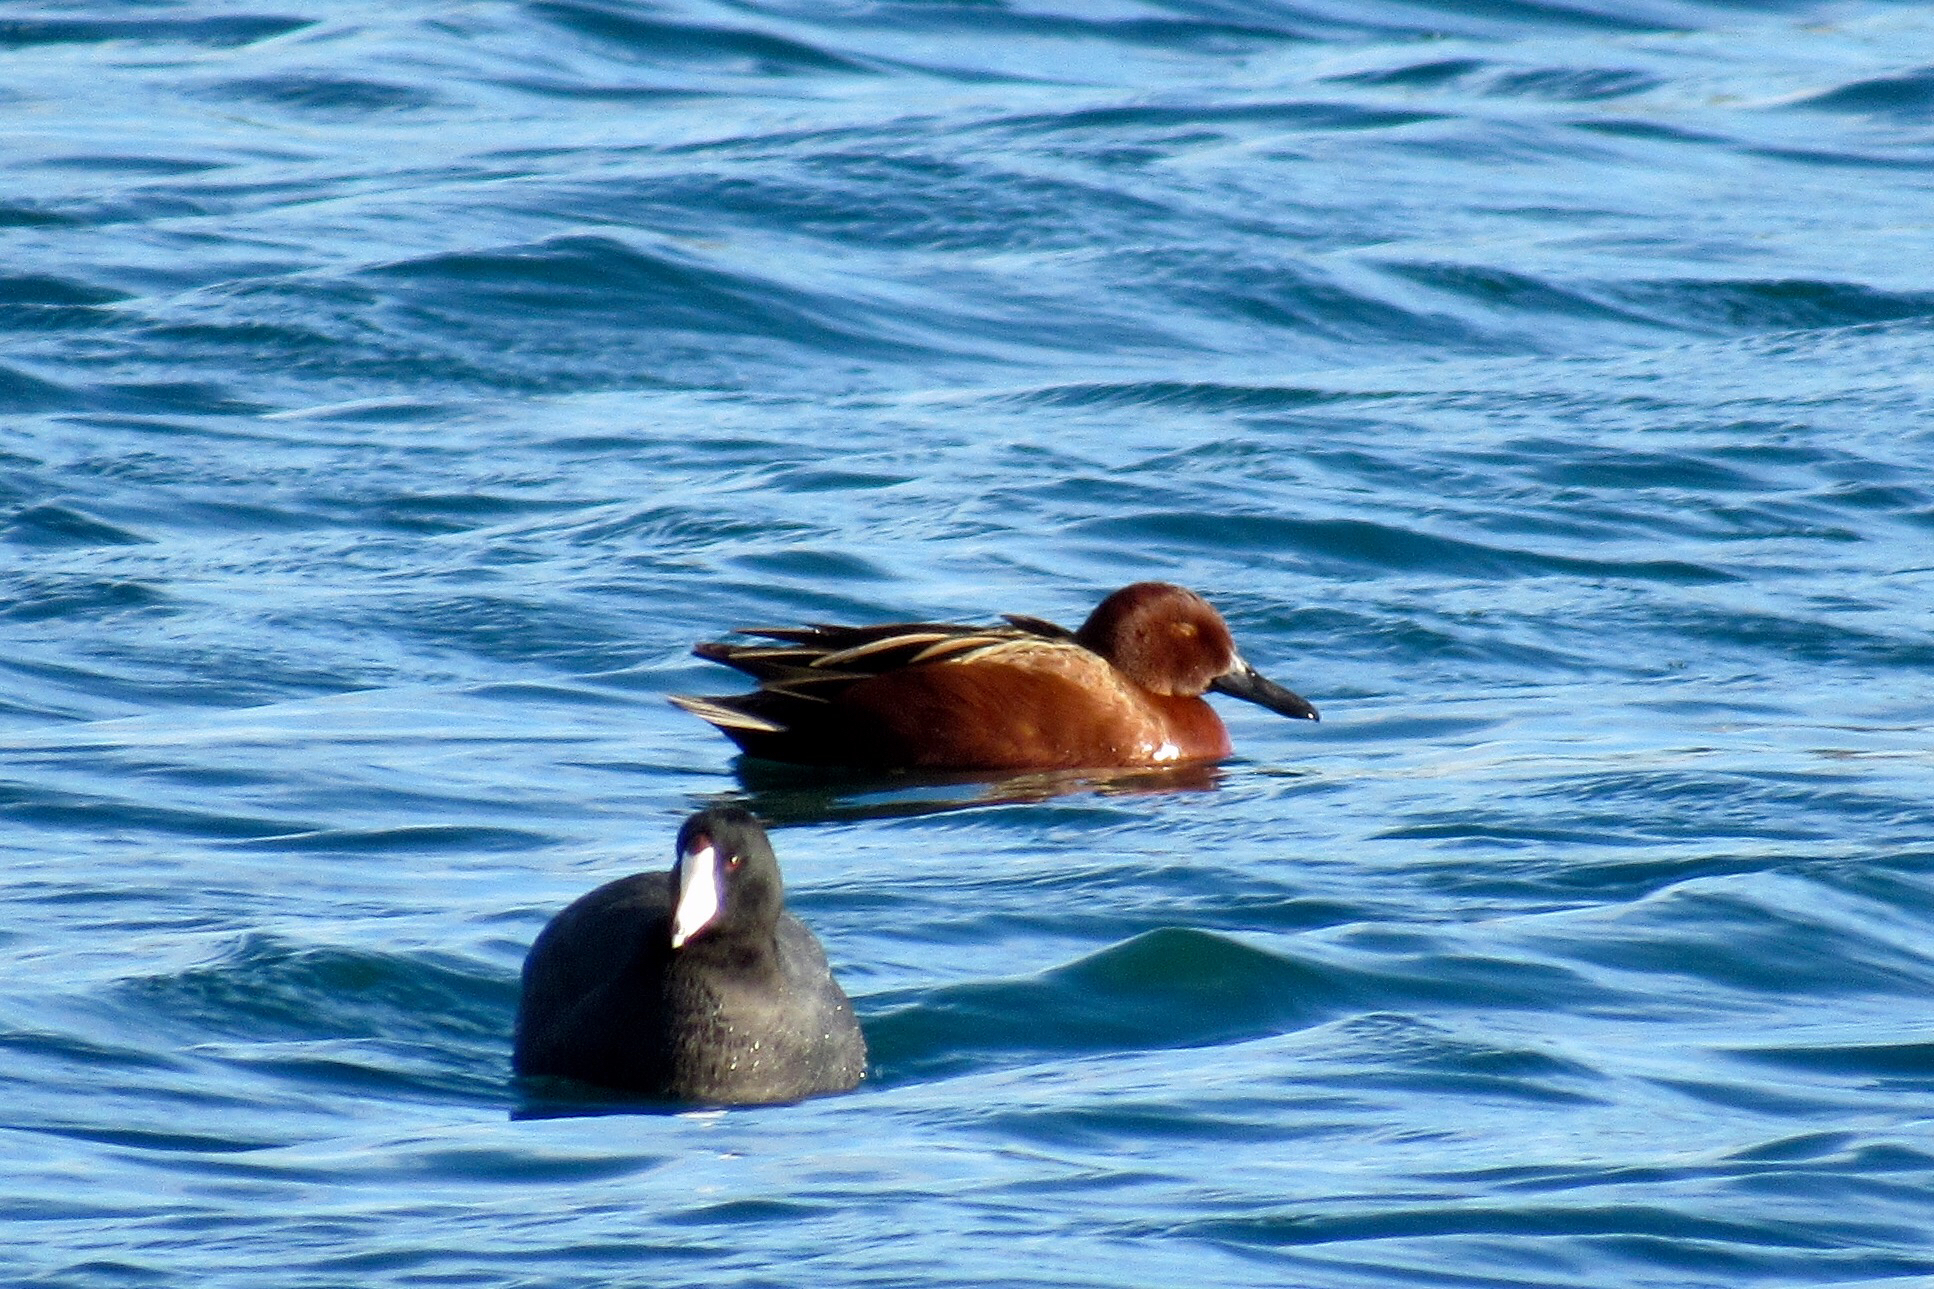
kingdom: Animalia
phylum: Chordata
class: Aves
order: Anseriformes
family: Anatidae
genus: Spatula
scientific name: Spatula cyanoptera
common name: Cinnamon teal
